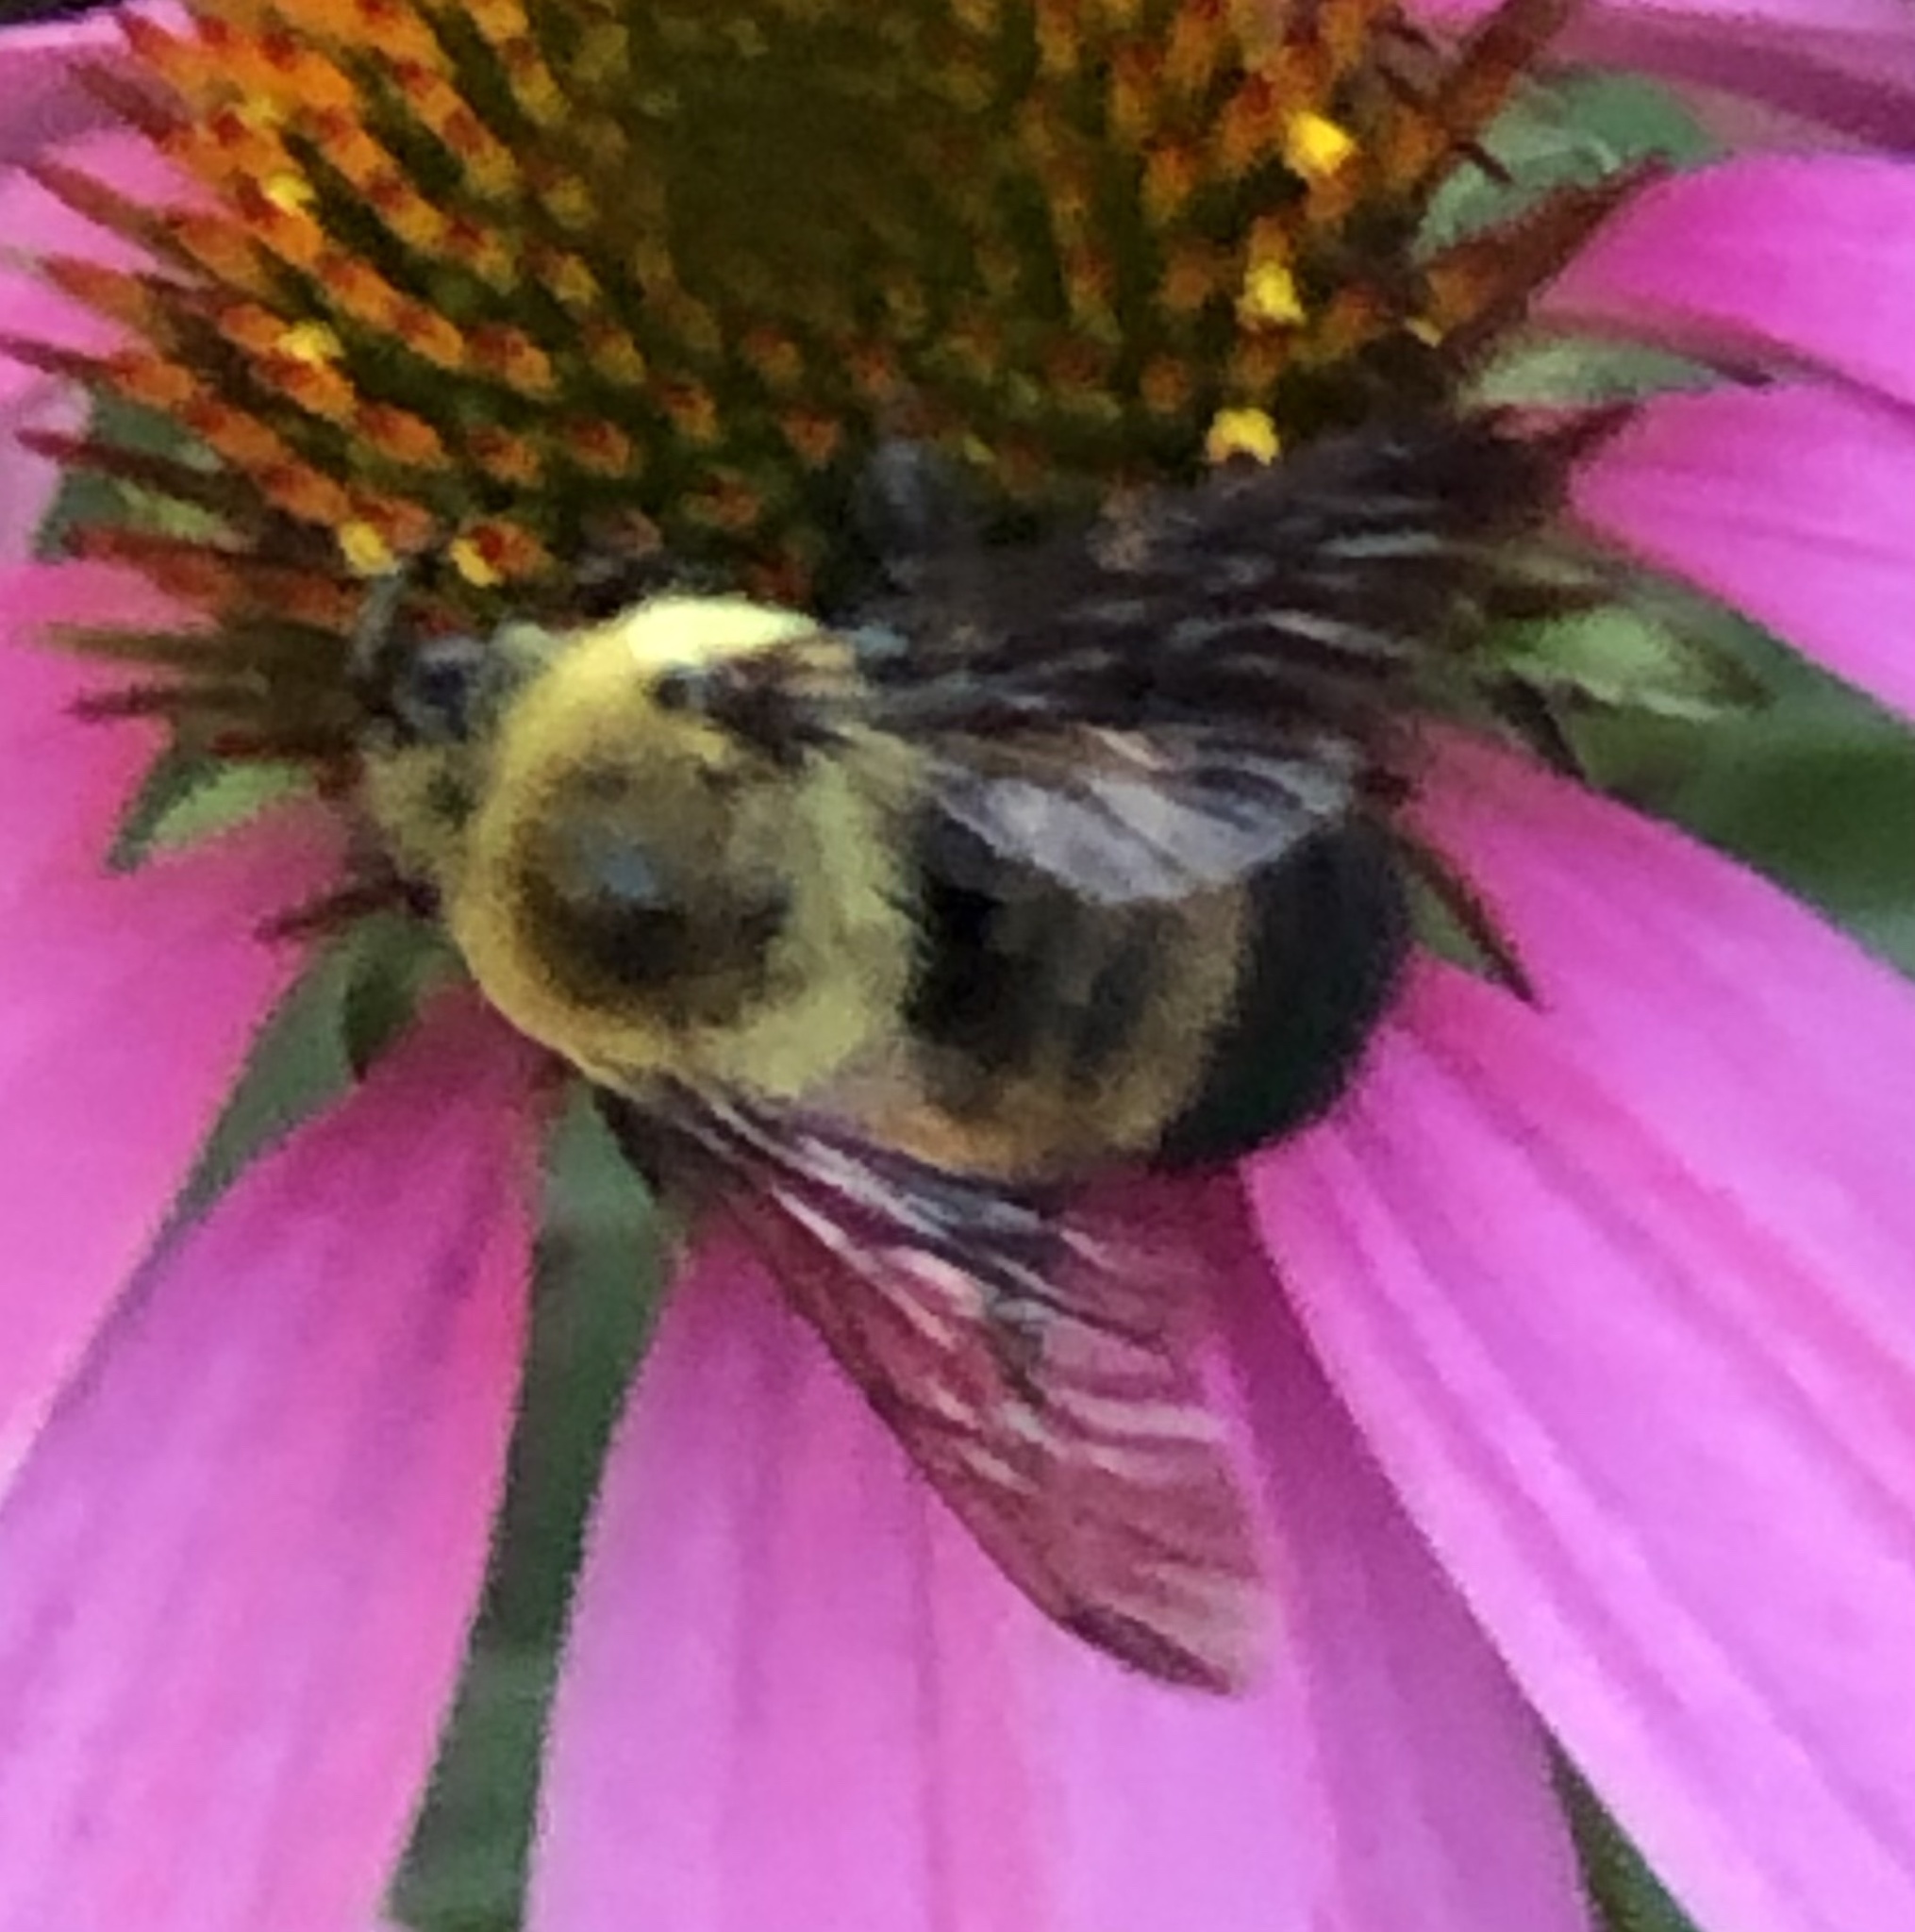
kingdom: Animalia
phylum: Arthropoda
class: Insecta
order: Hymenoptera
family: Apidae
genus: Bombus
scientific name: Bombus griseocollis
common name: Brown-belted bumble bee
